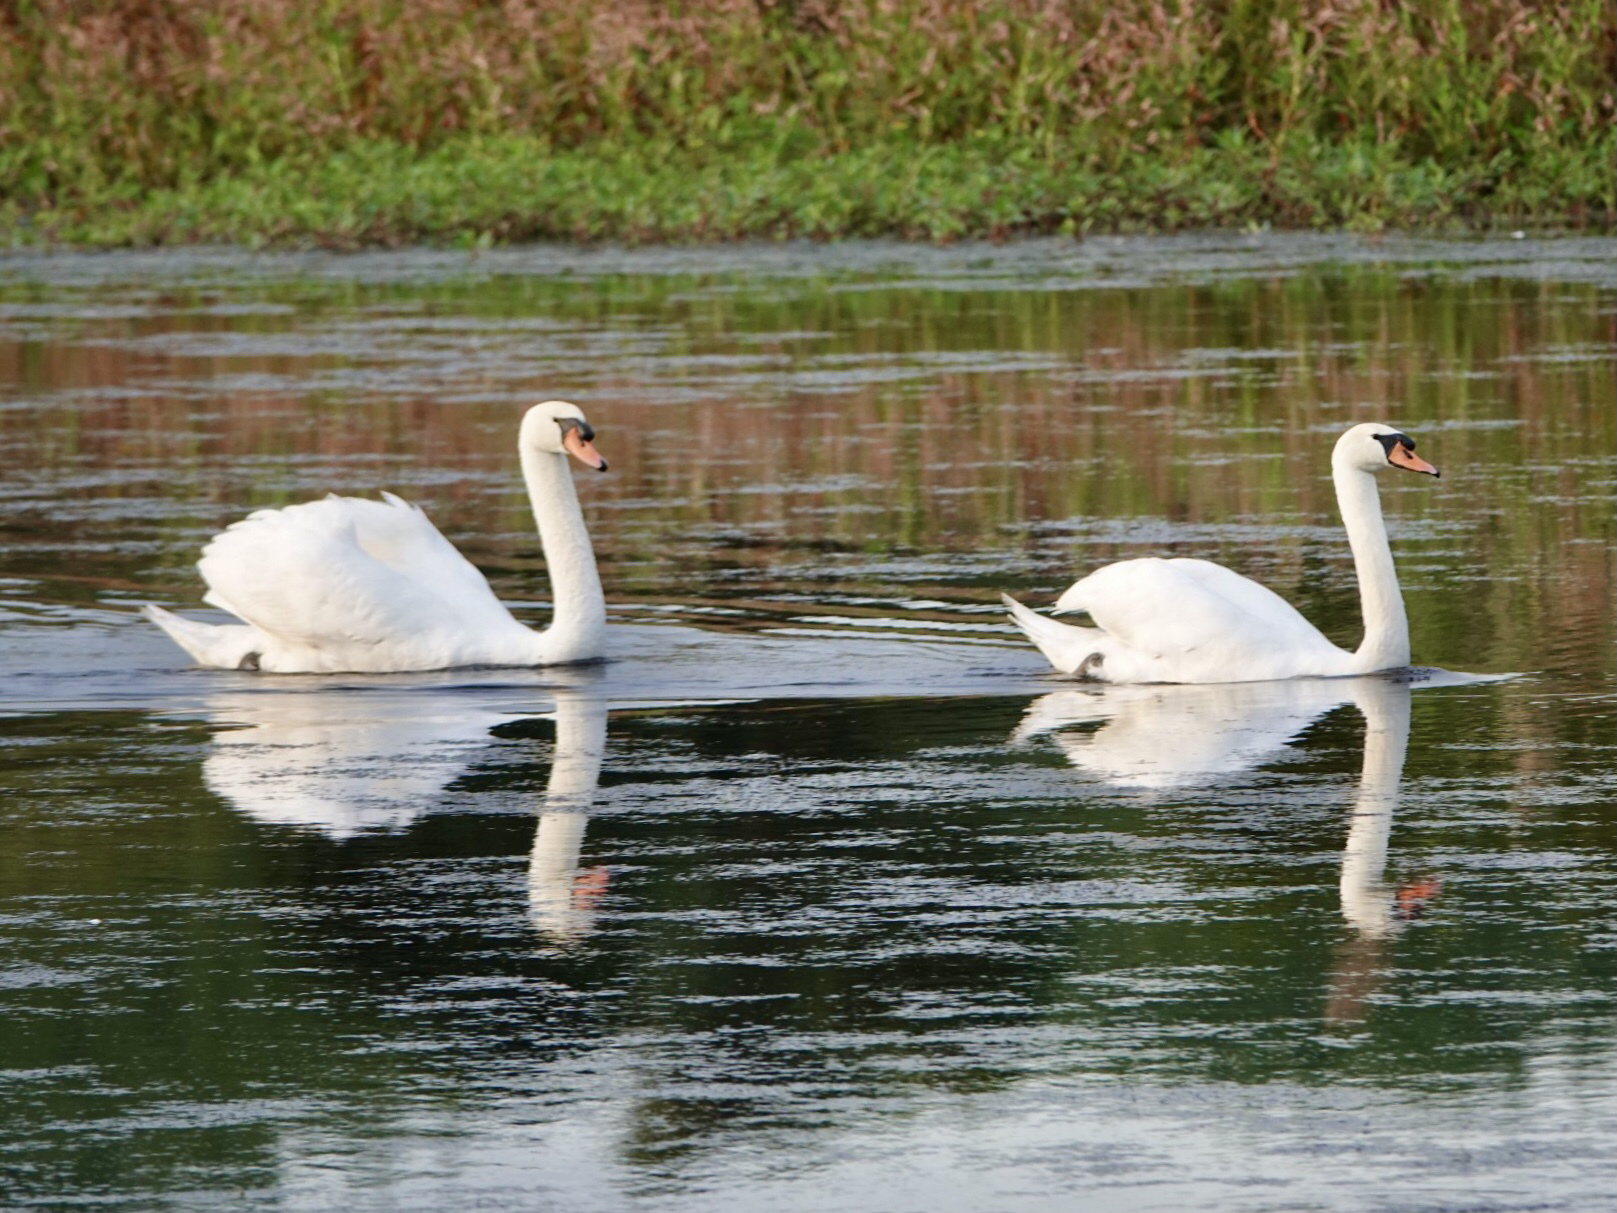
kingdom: Animalia
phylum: Chordata
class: Aves
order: Anseriformes
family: Anatidae
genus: Cygnus
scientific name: Cygnus olor
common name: Mute swan
